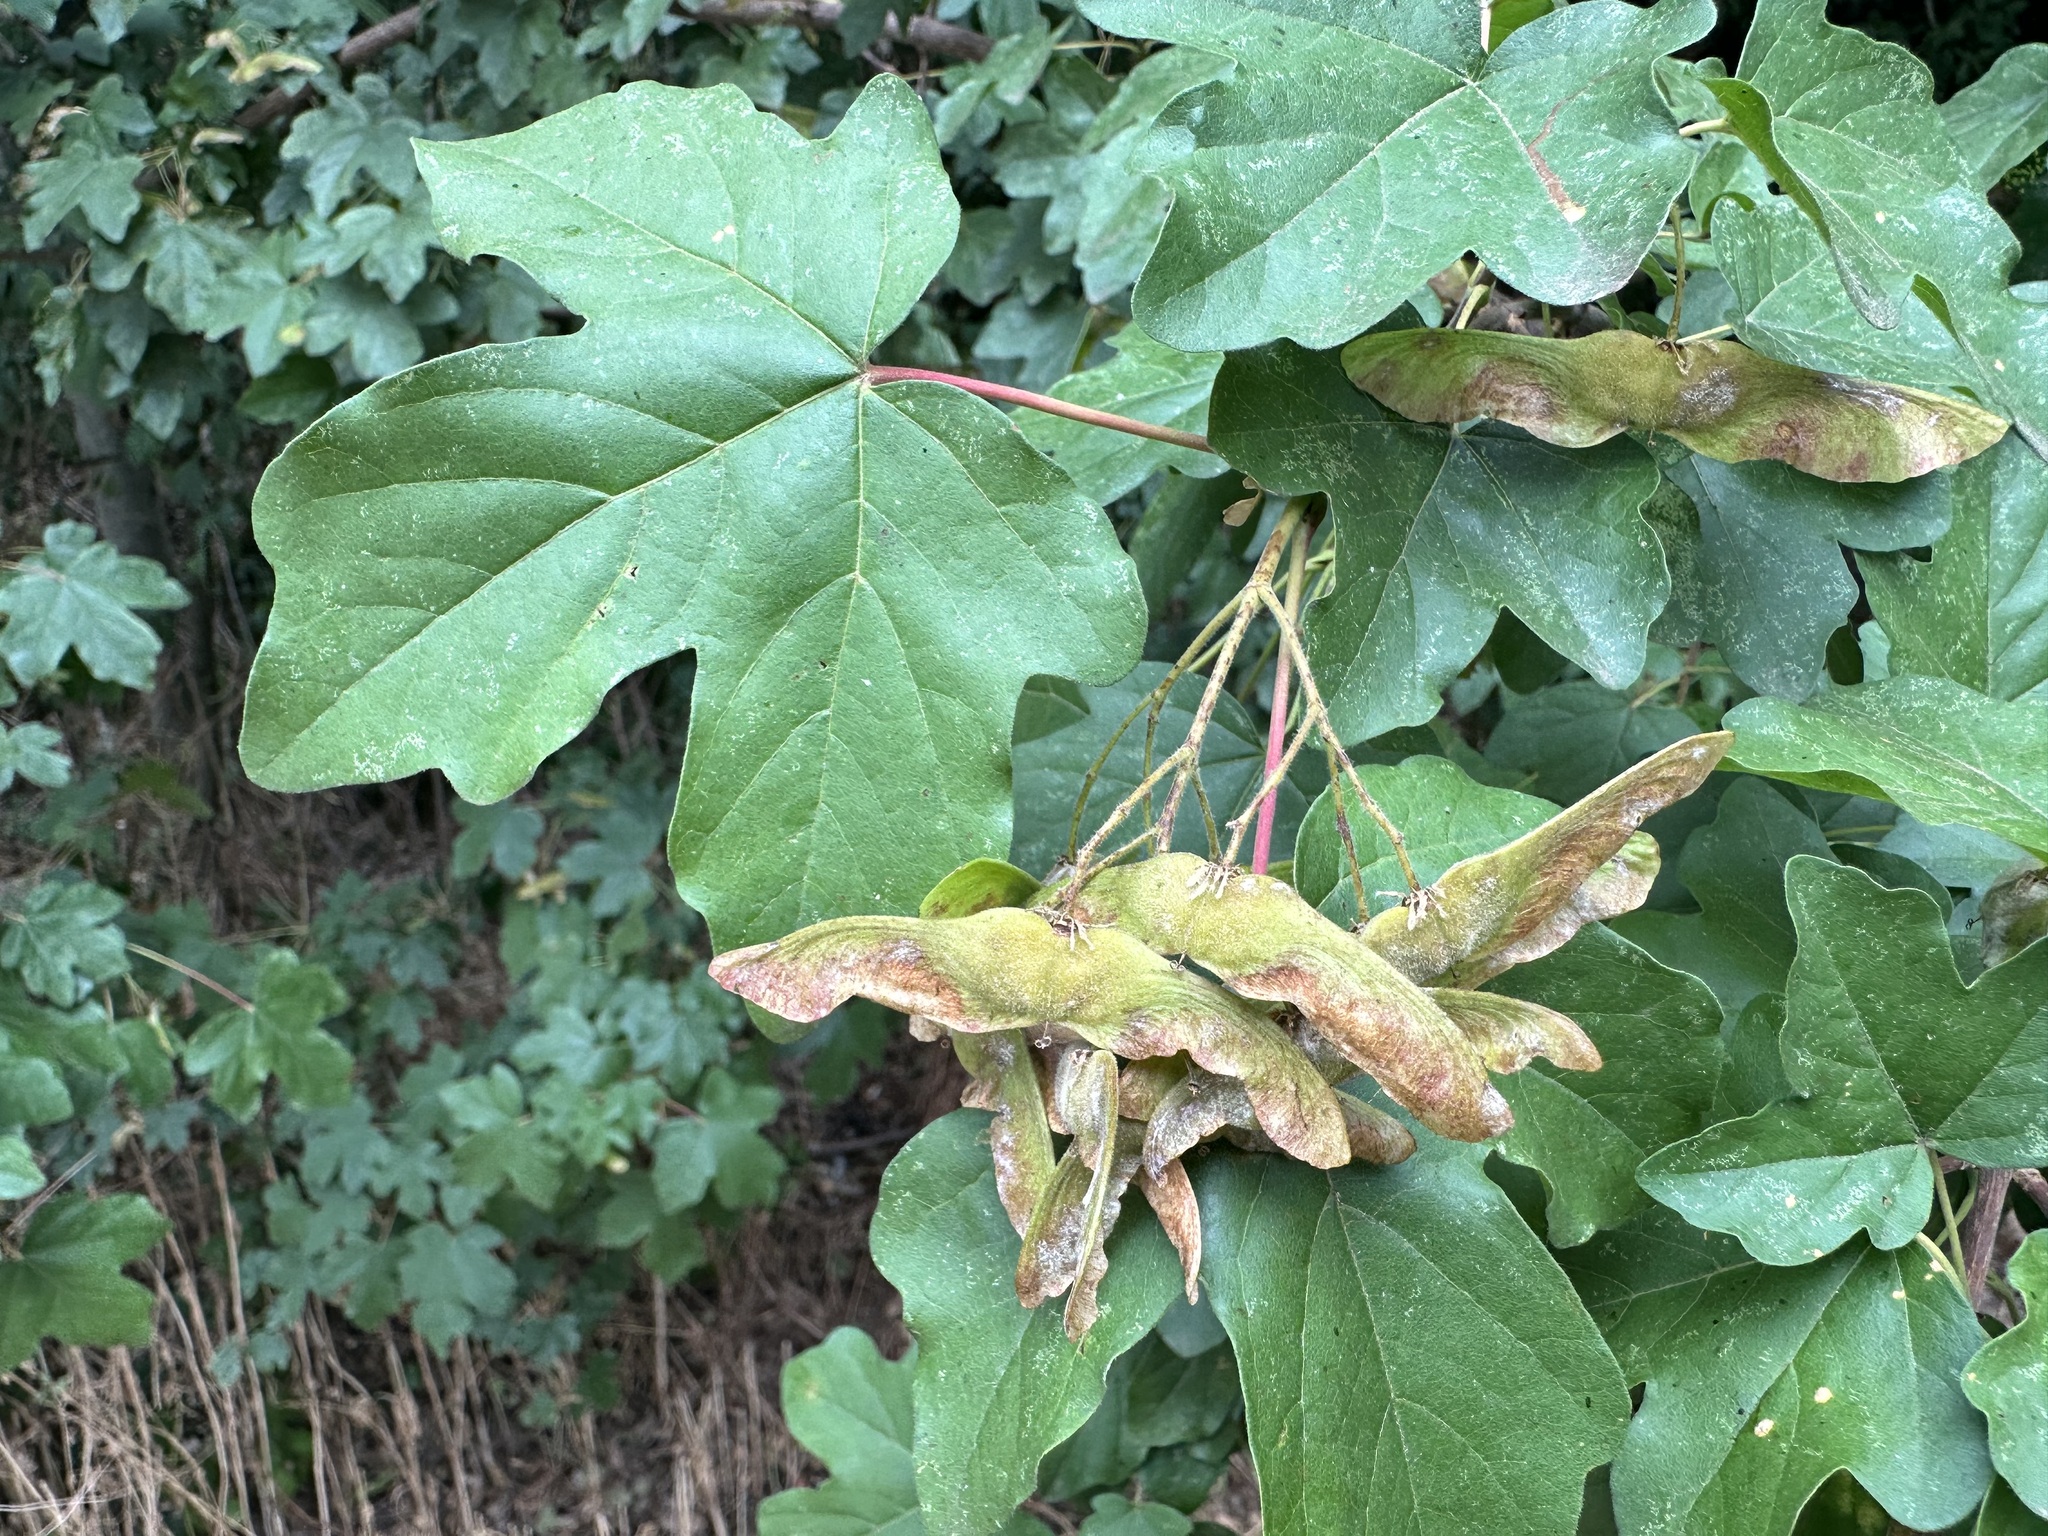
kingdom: Plantae
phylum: Tracheophyta
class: Magnoliopsida
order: Sapindales
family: Sapindaceae
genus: Acer
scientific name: Acer campestre
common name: Field maple
